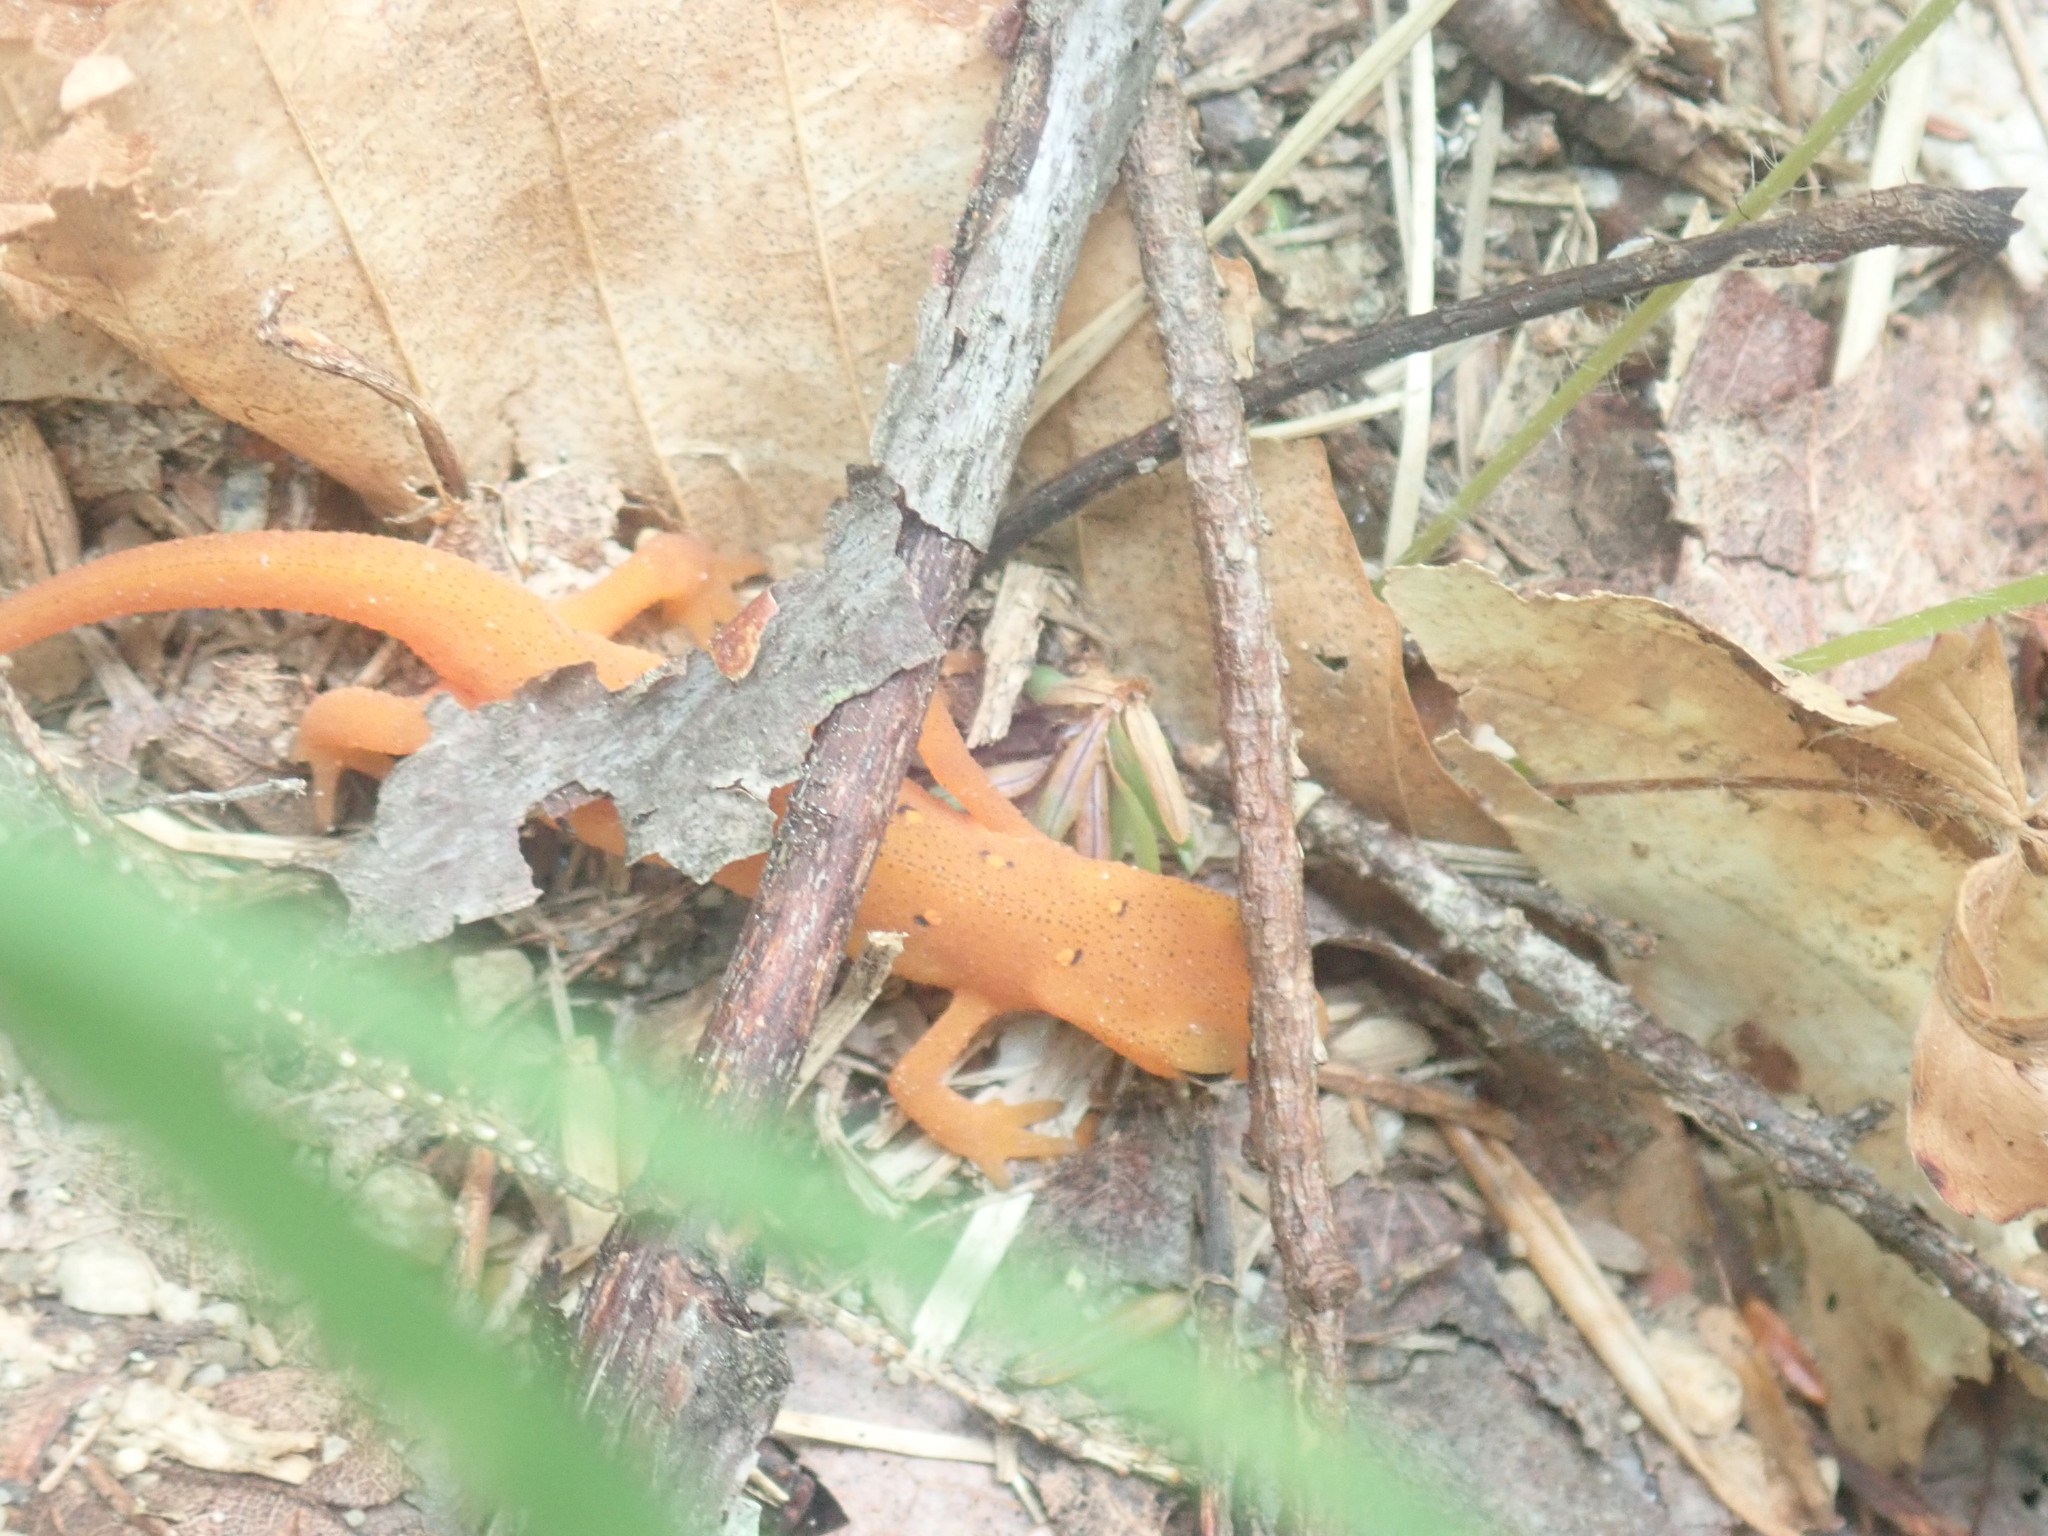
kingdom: Animalia
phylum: Chordata
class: Amphibia
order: Caudata
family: Salamandridae
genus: Notophthalmus
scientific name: Notophthalmus viridescens
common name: Eastern newt
